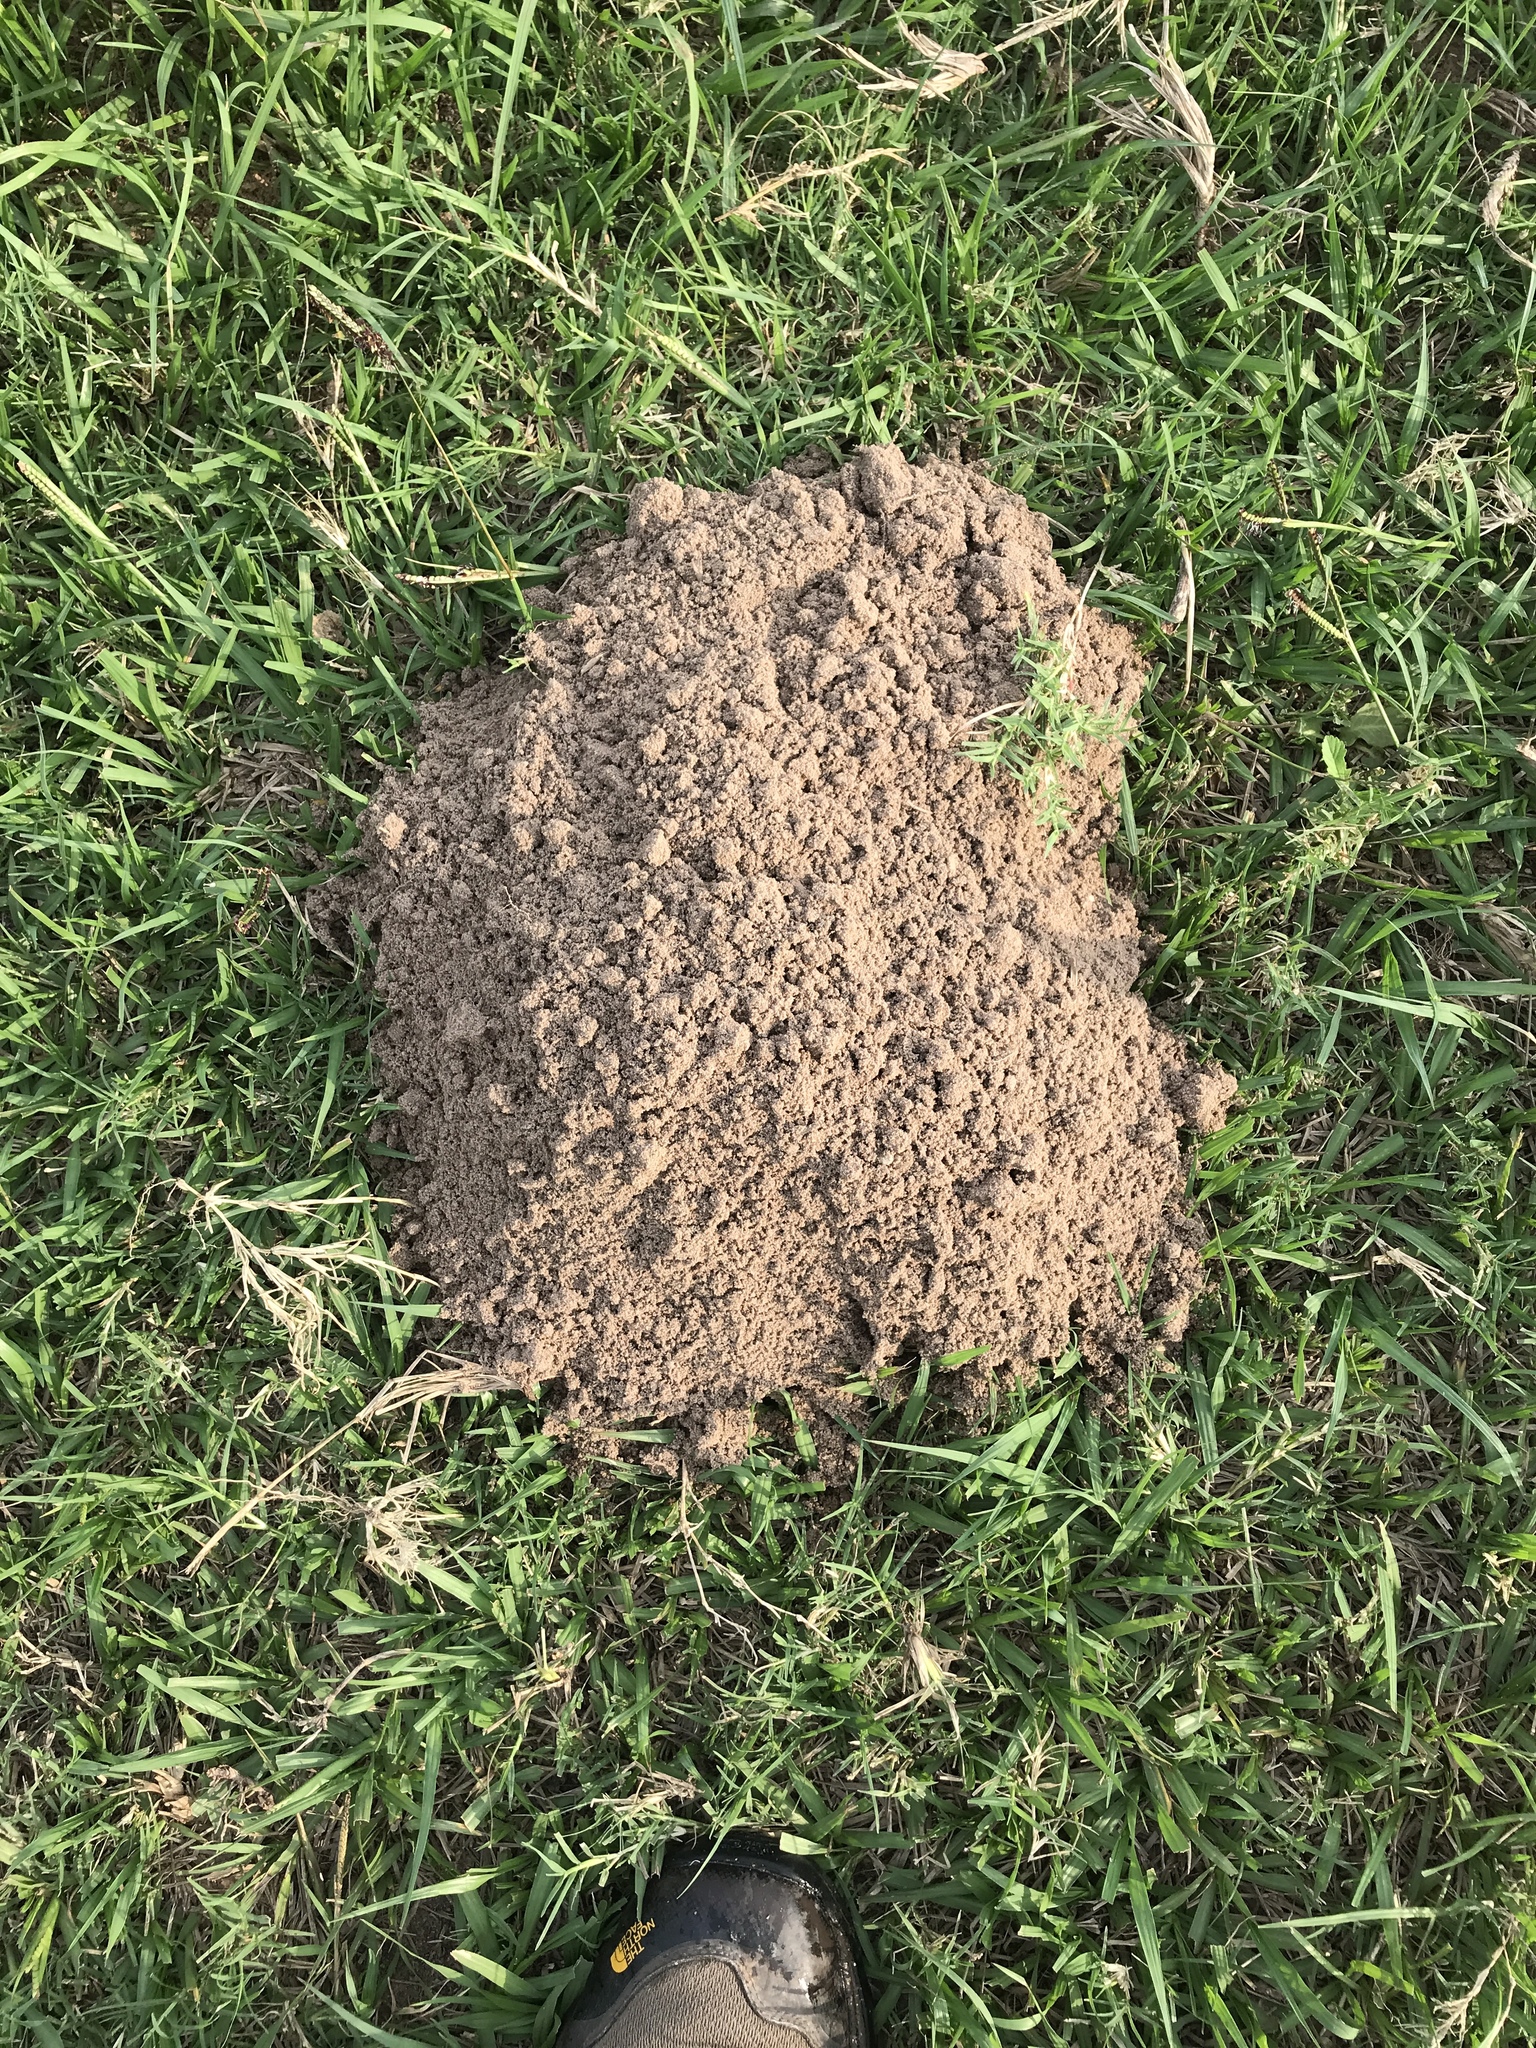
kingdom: Animalia
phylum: Chordata
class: Mammalia
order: Rodentia
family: Geomyidae
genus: Geomys
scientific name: Geomys attwateri
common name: Attwater's pocket gopher
